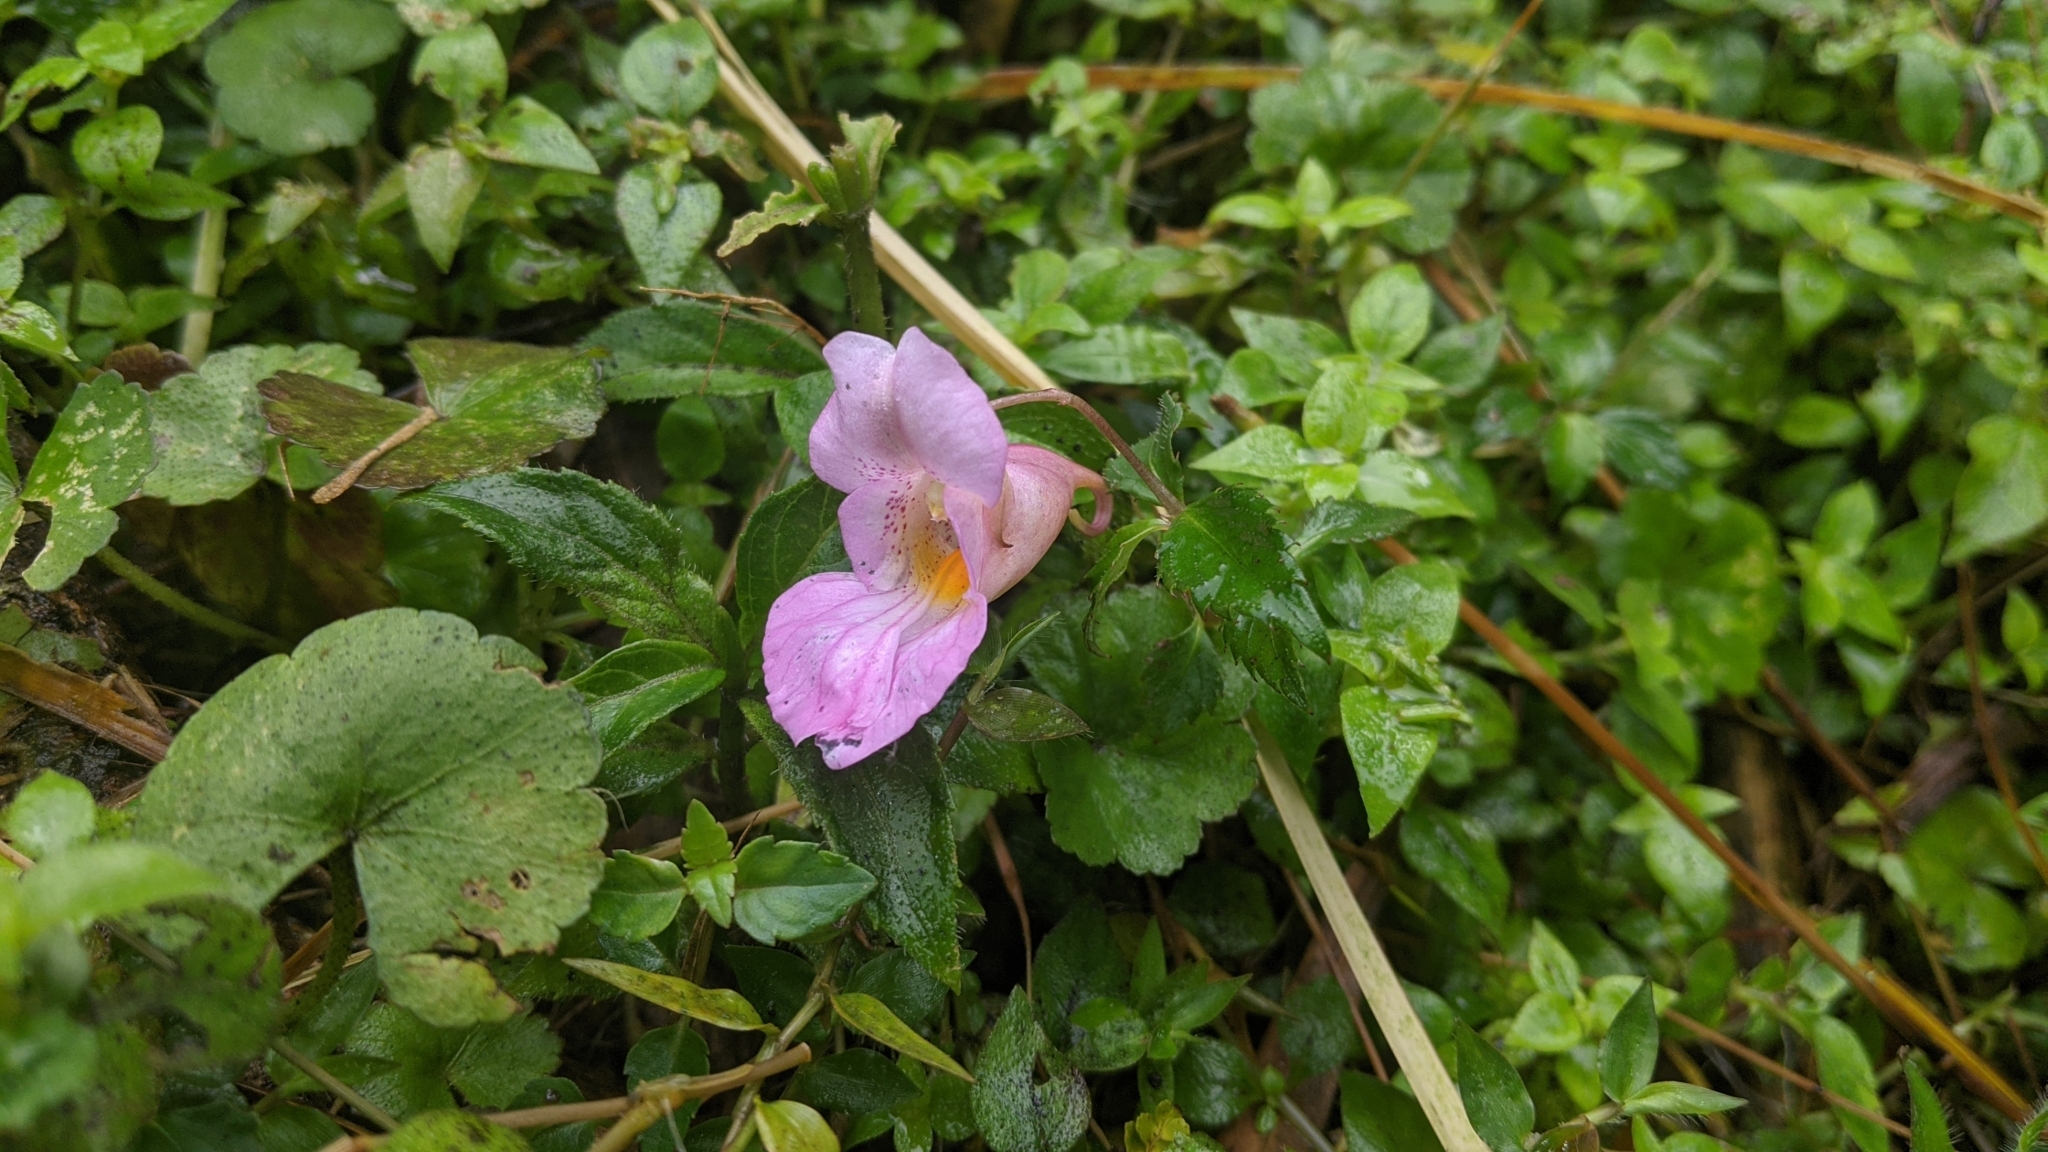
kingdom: Plantae
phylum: Tracheophyta
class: Magnoliopsida
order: Ericales
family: Balsaminaceae
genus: Impatiens
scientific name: Impatiens uniflora
